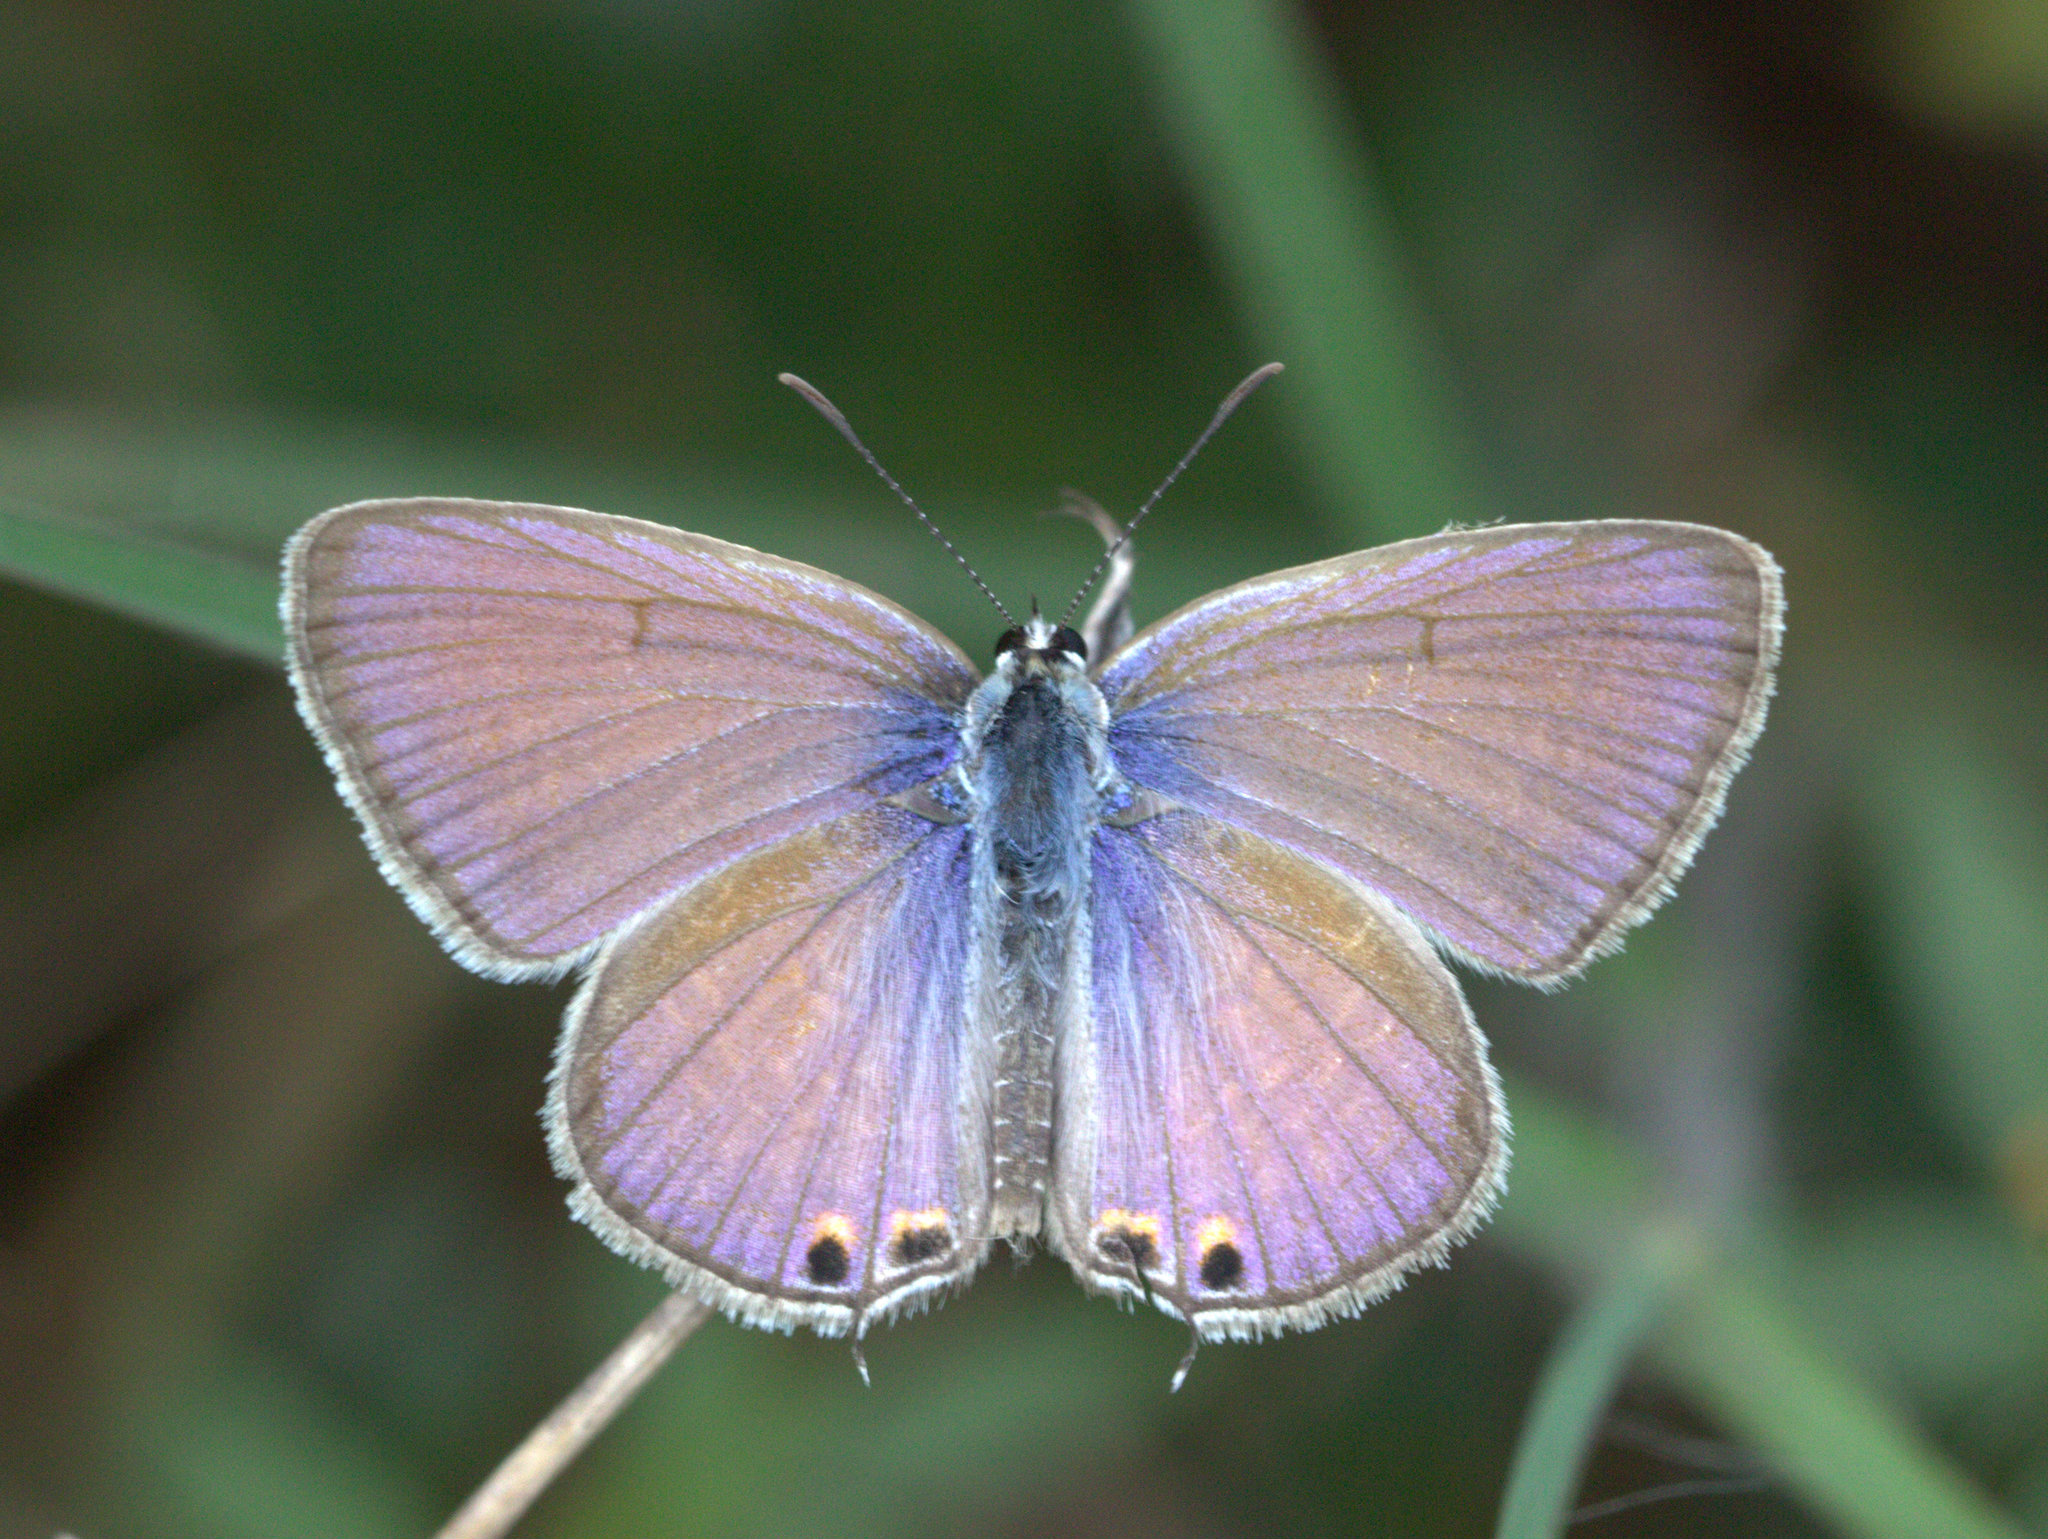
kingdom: Animalia
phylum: Arthropoda
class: Insecta
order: Lepidoptera
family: Lycaenidae
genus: Euchrysops
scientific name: Euchrysops cnejus
